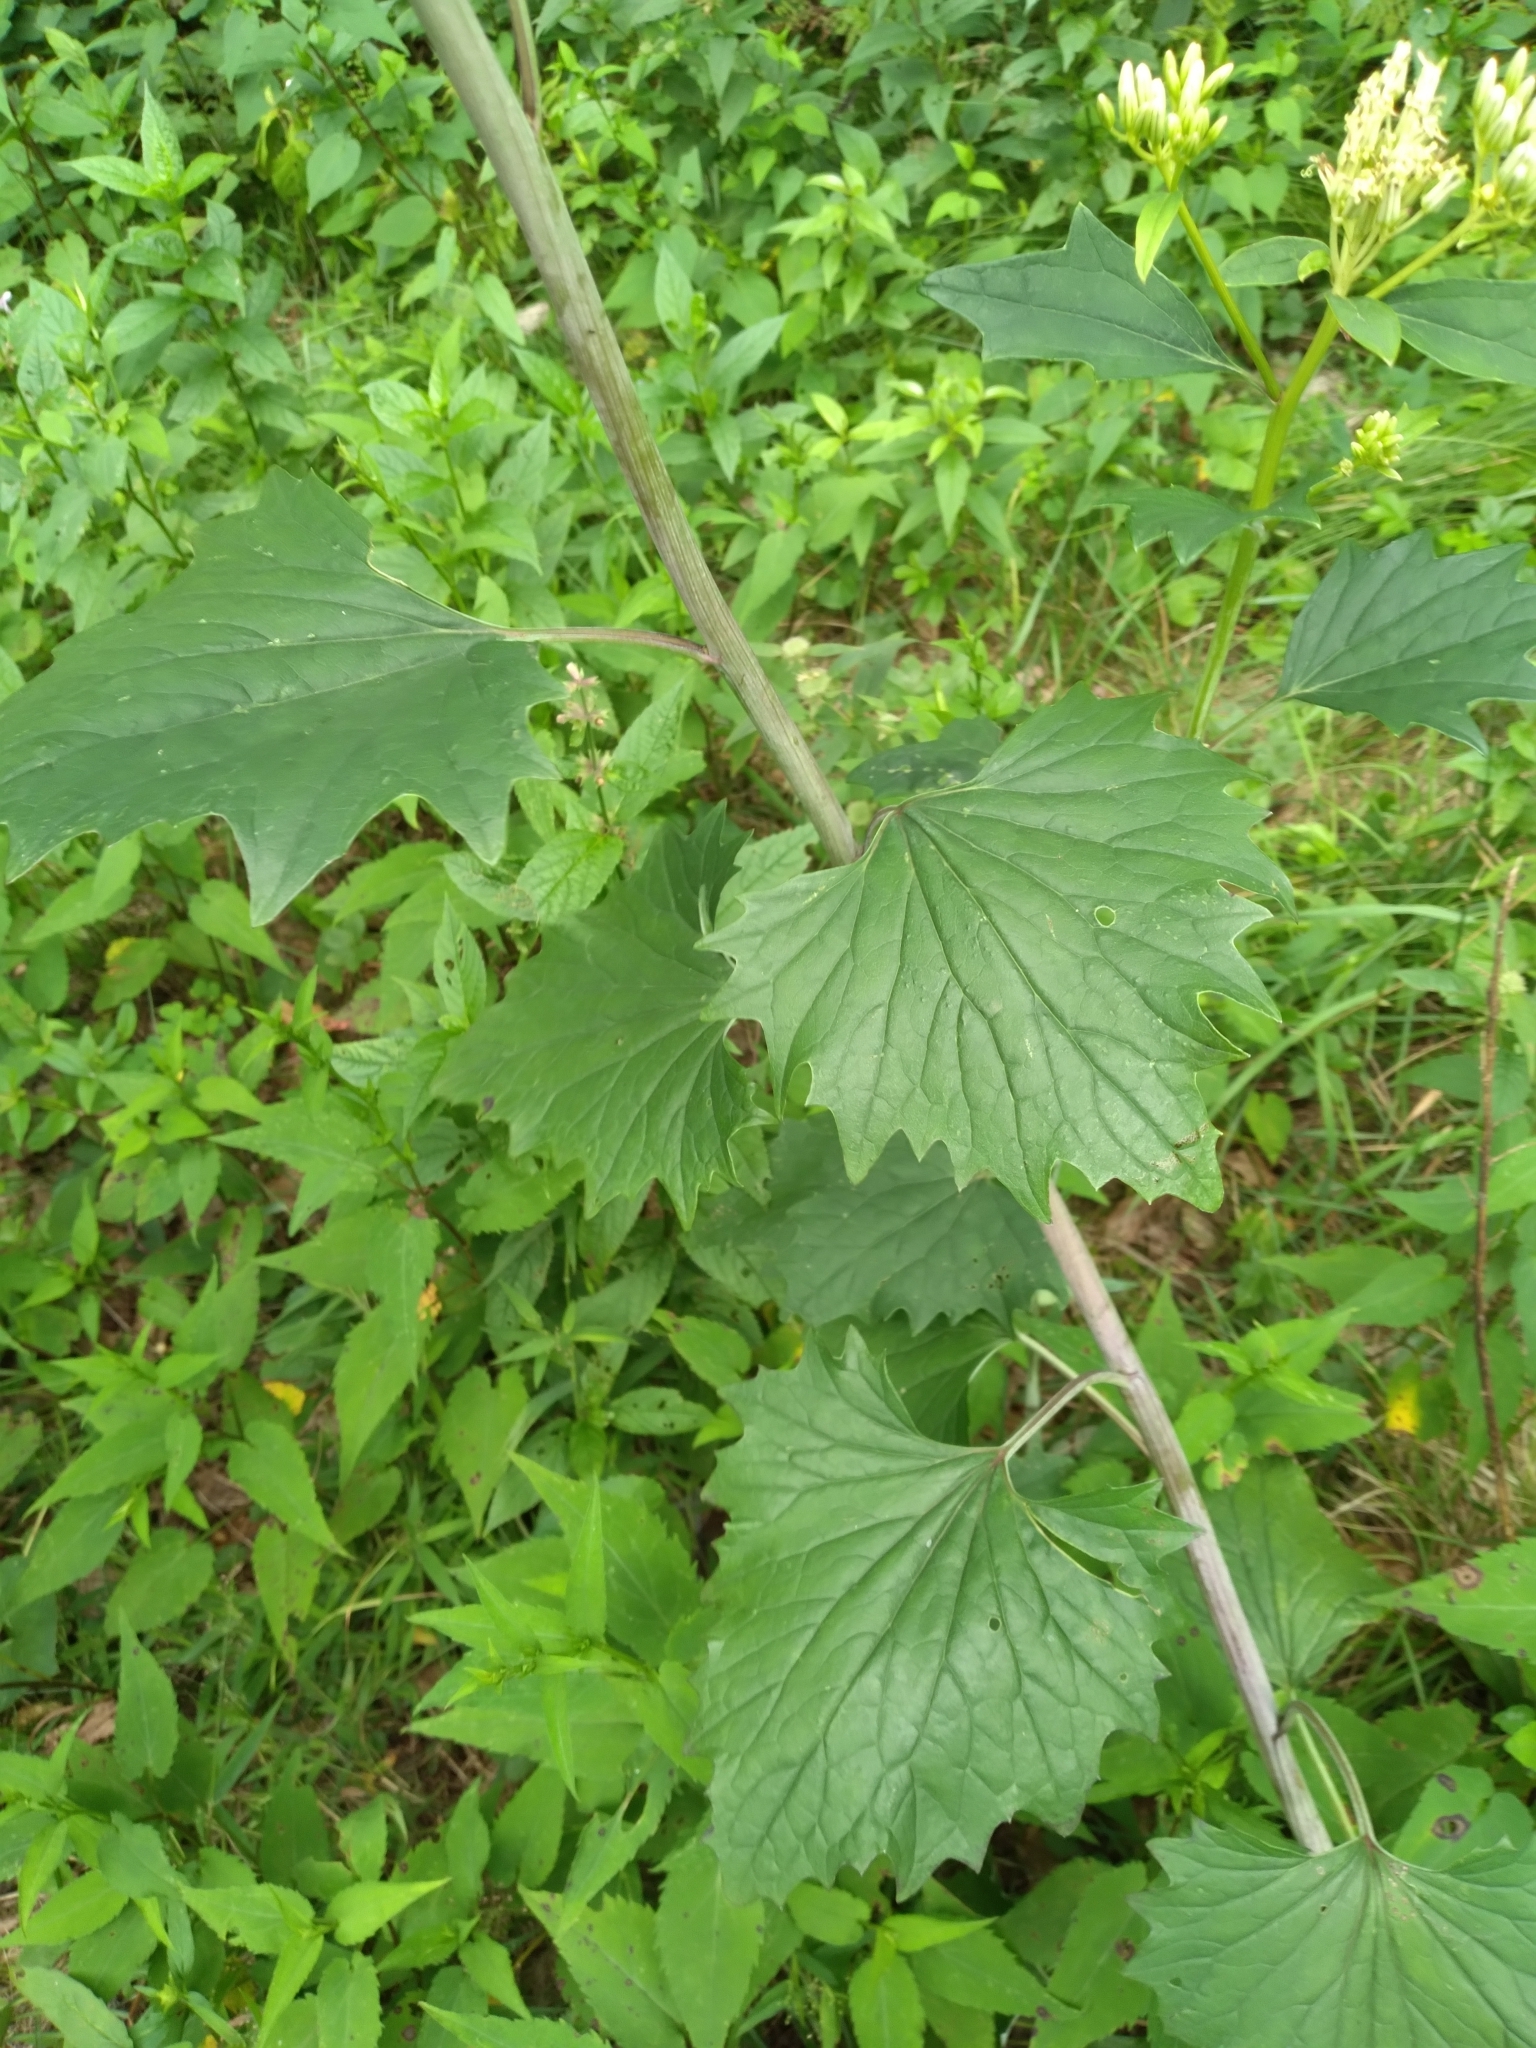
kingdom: Plantae
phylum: Tracheophyta
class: Magnoliopsida
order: Asterales
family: Asteraceae
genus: Arnoglossum
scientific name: Arnoglossum atriplicifolium
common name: Pale indian-plantain
